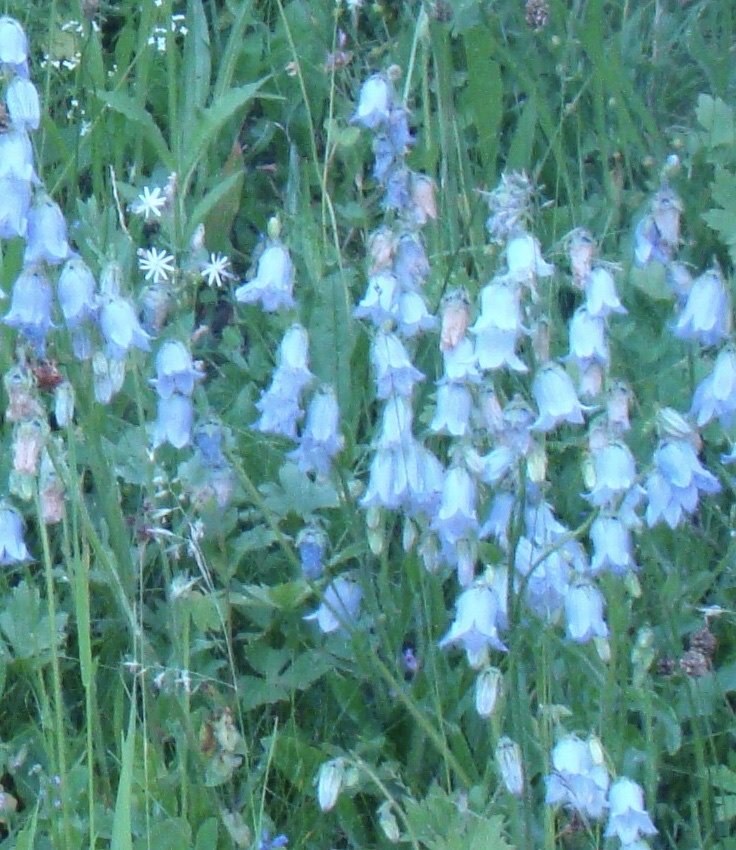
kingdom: Plantae
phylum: Tracheophyta
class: Magnoliopsida
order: Asterales
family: Campanulaceae
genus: Campanula
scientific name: Campanula barbata
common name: Bearded bellflower
